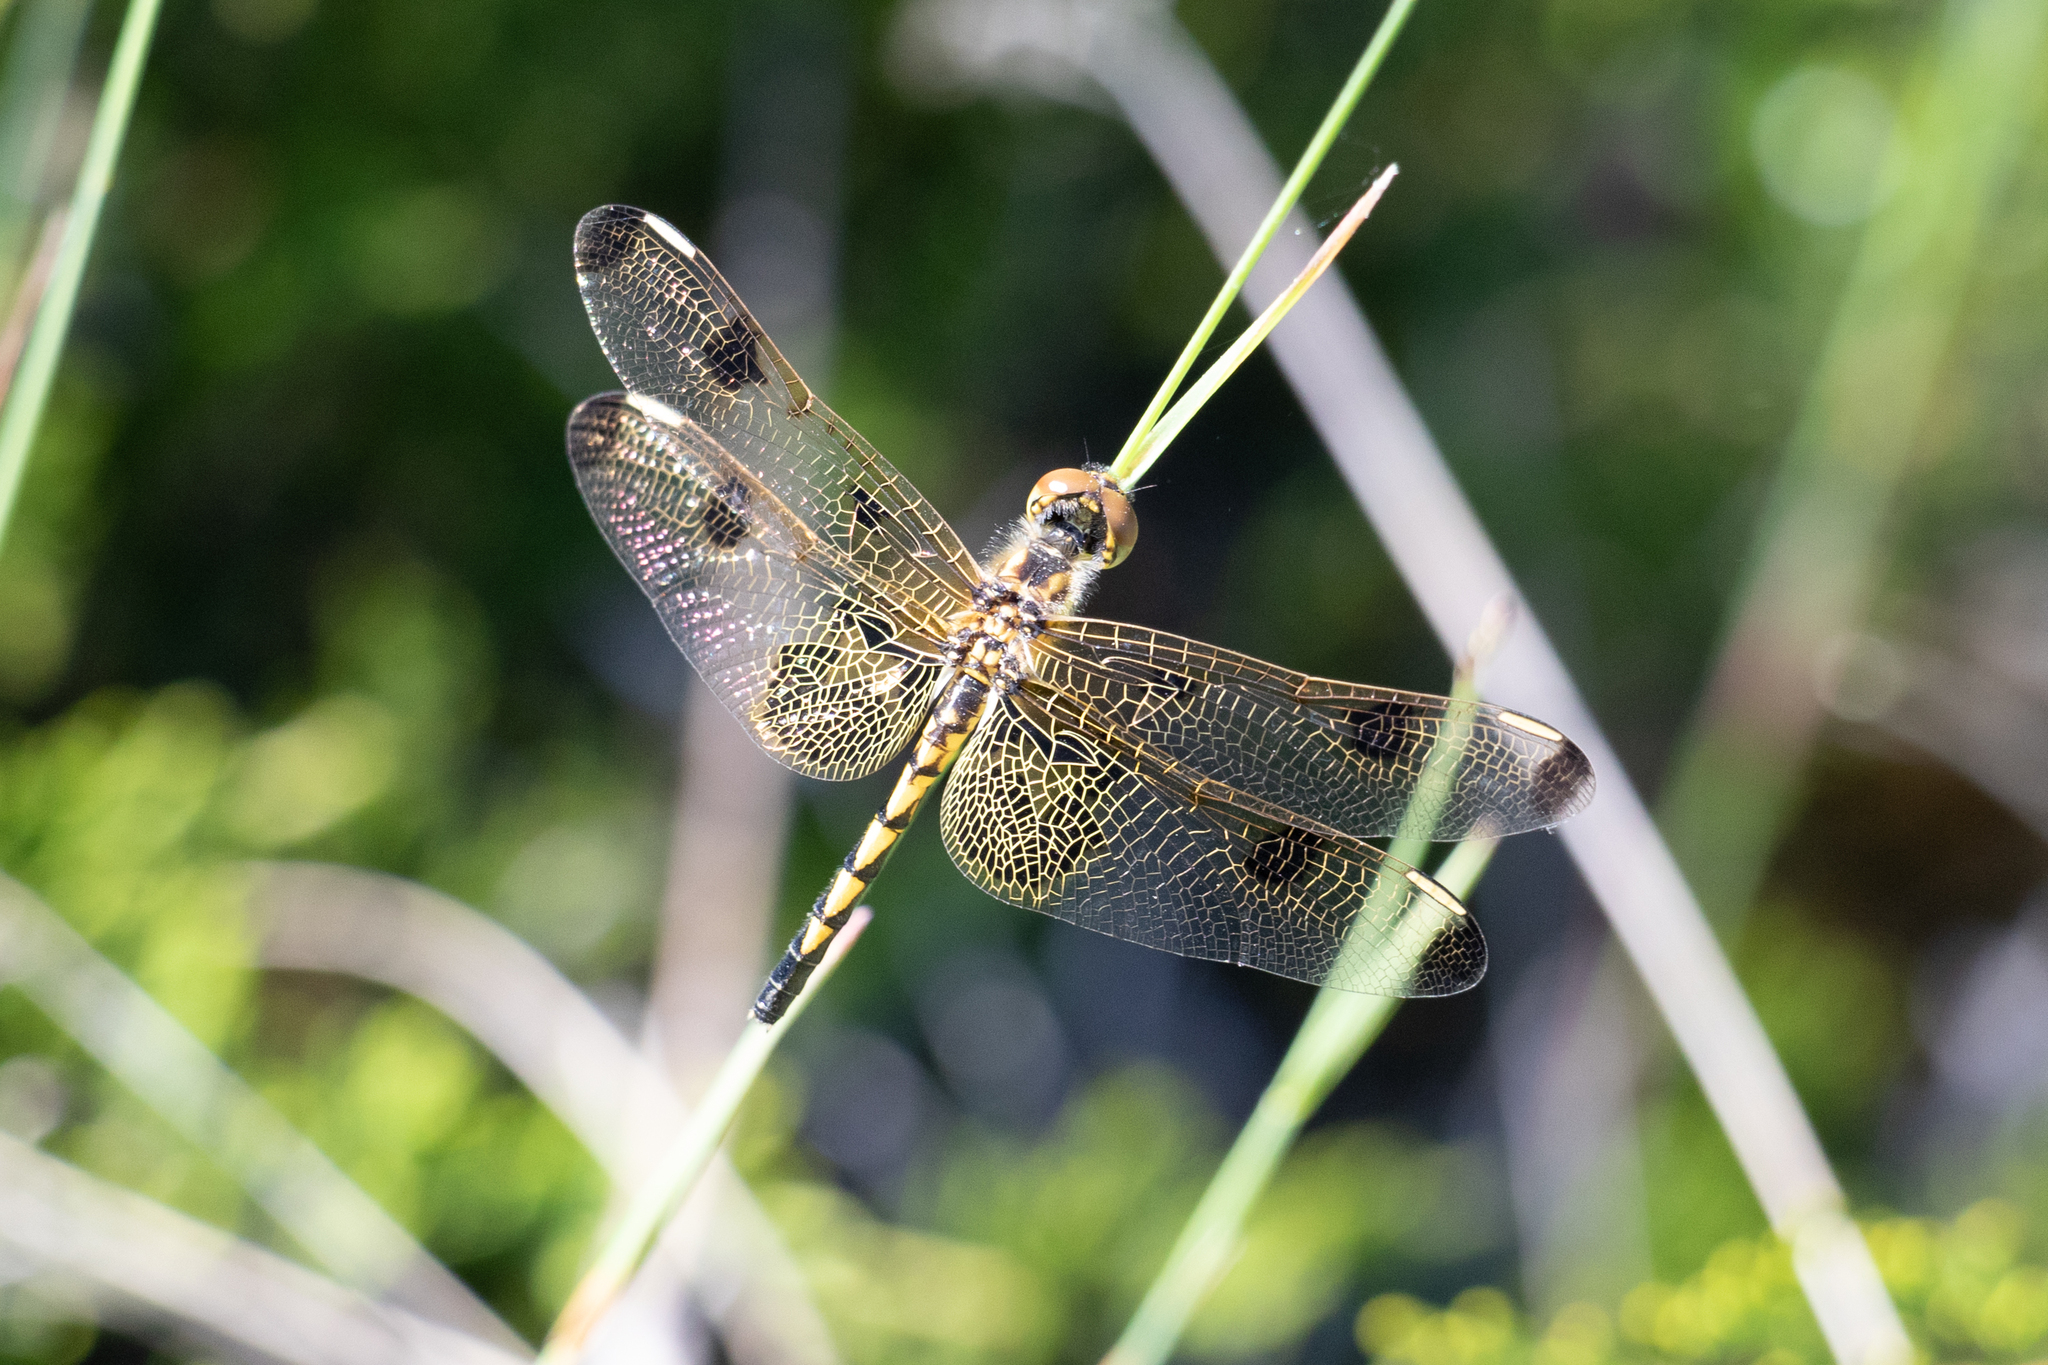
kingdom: Animalia
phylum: Arthropoda
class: Insecta
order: Odonata
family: Libellulidae
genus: Celithemis
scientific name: Celithemis elisa
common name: Calico pennant
